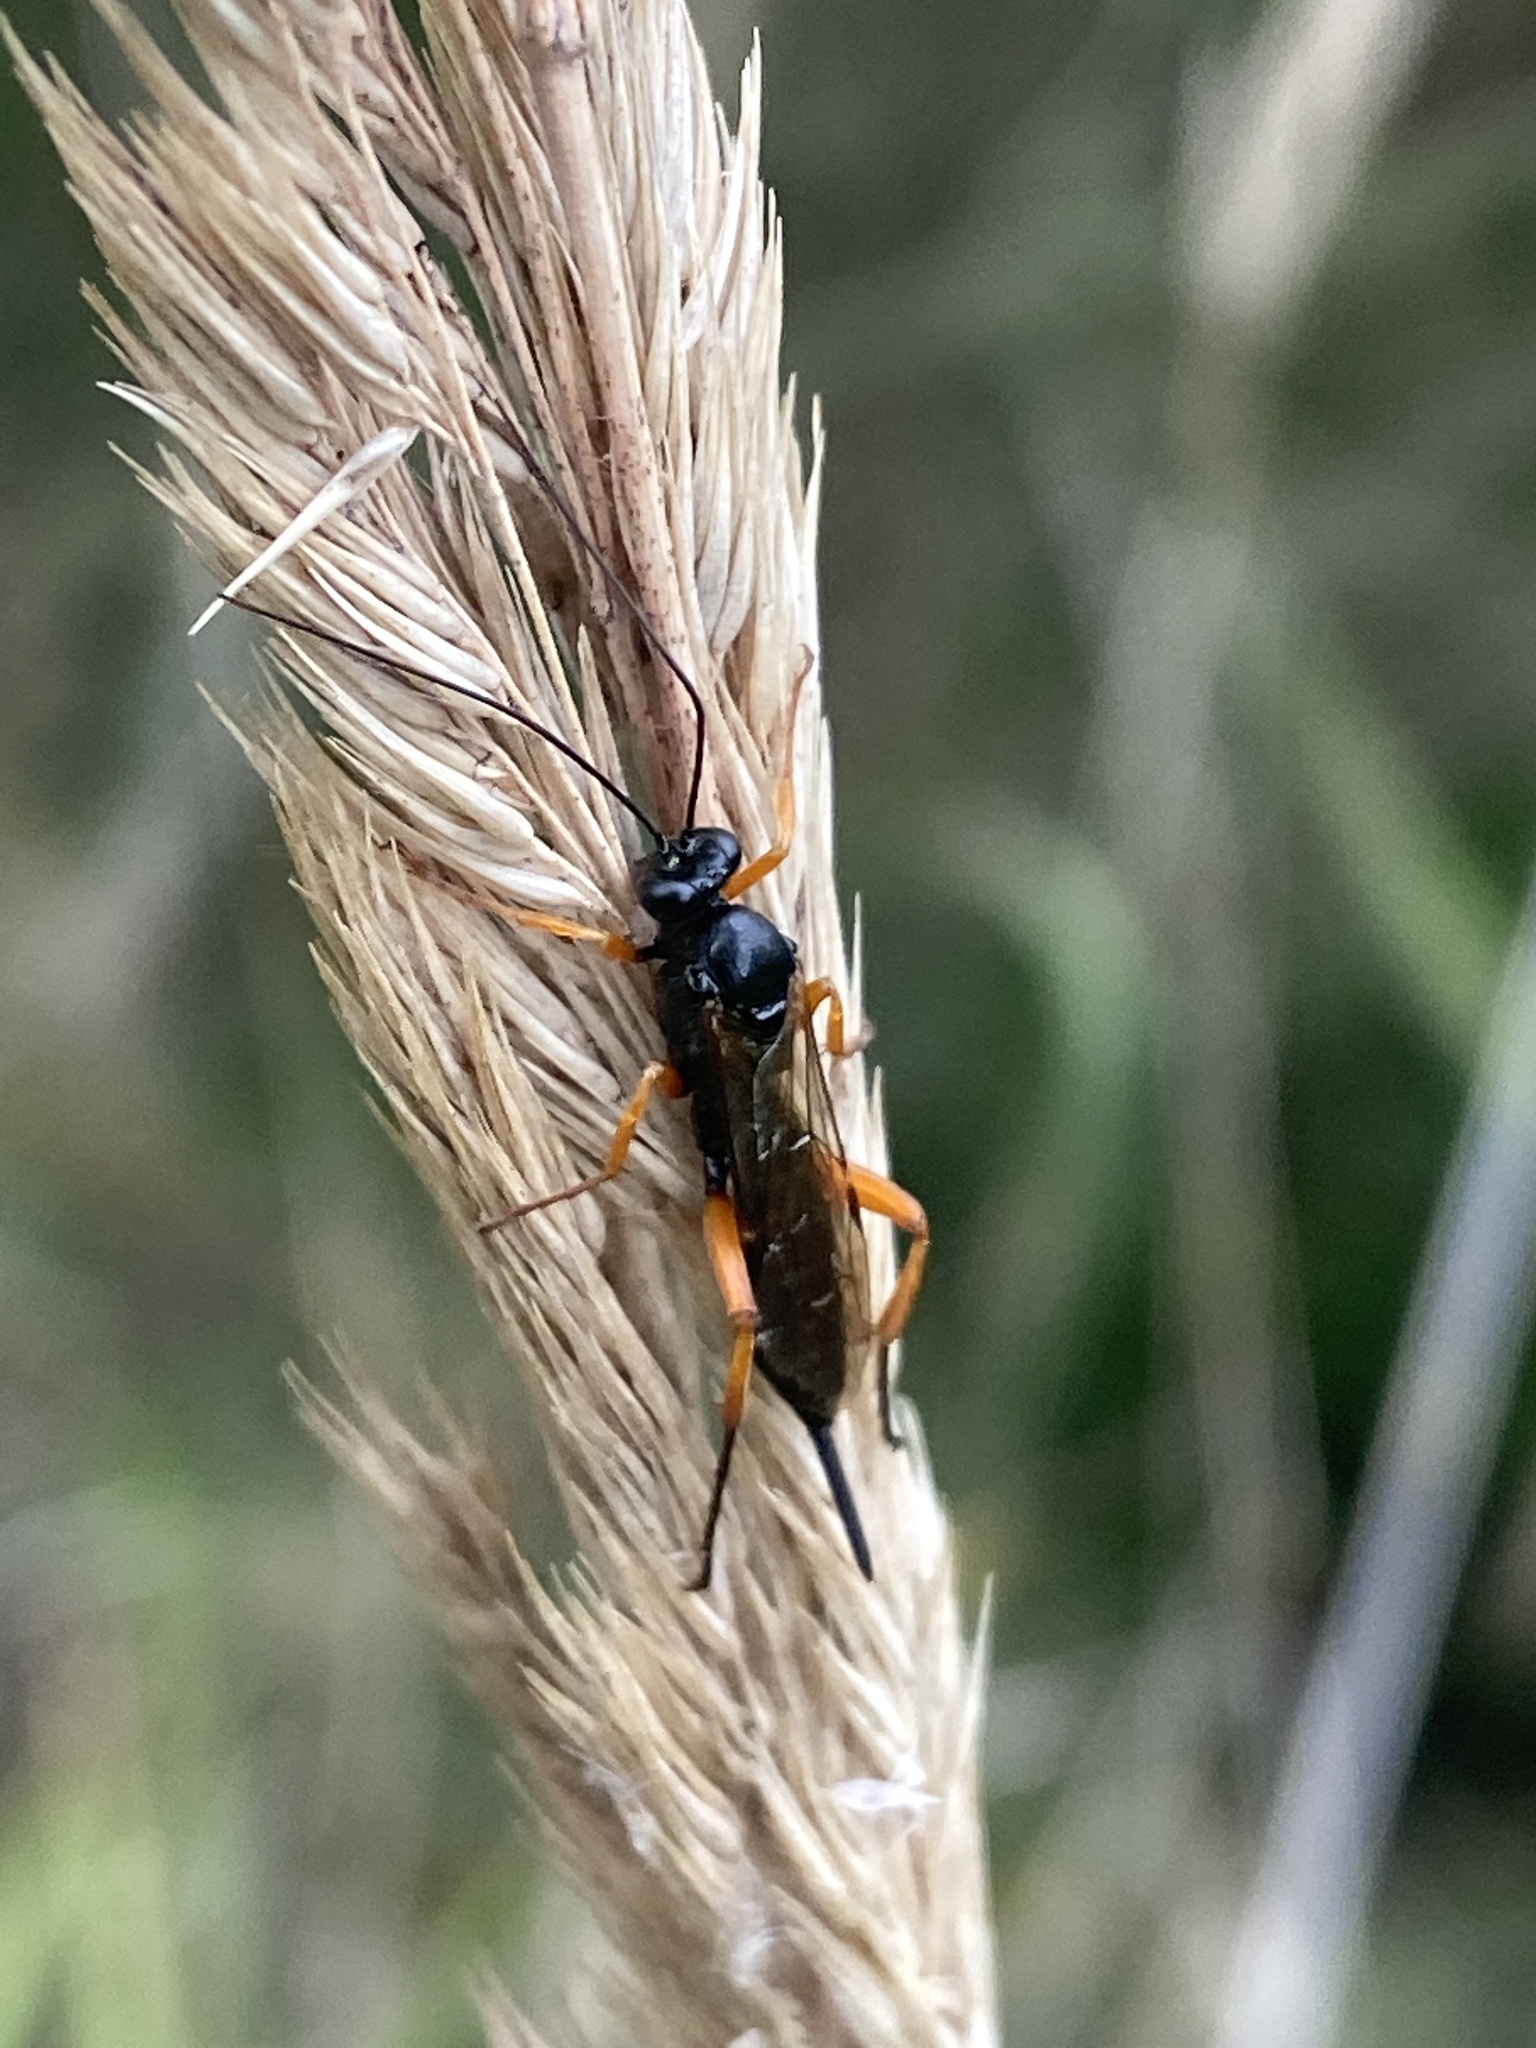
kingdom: Animalia
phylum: Arthropoda
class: Insecta
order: Hymenoptera
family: Ichneumonidae
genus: Pimpla
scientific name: Pimpla rufipes
